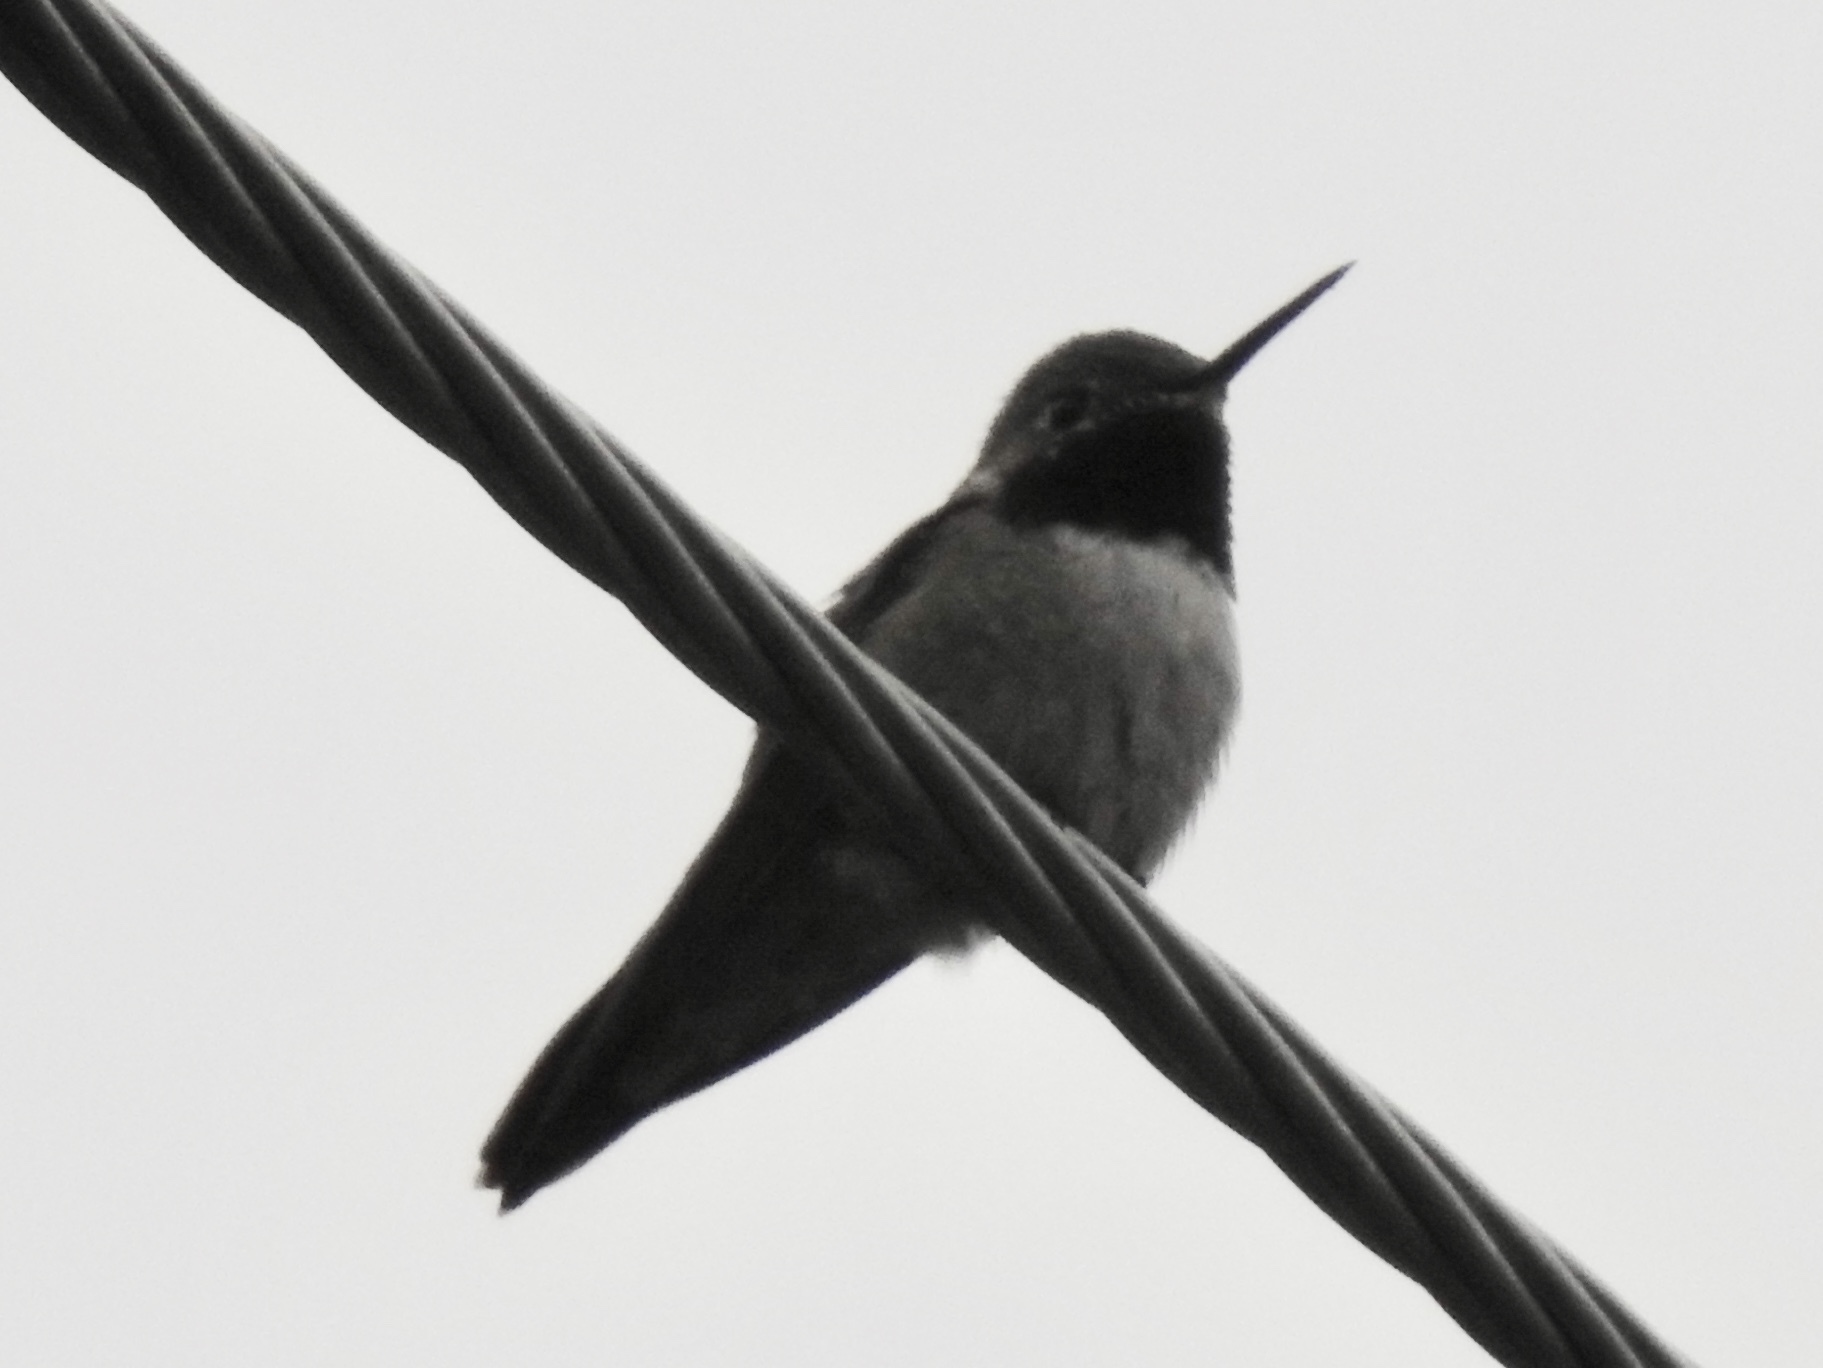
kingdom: Animalia
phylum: Chordata
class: Aves
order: Apodiformes
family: Trochilidae
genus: Selasphorus
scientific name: Selasphorus platycercus
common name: Broad-tailed hummingbird
